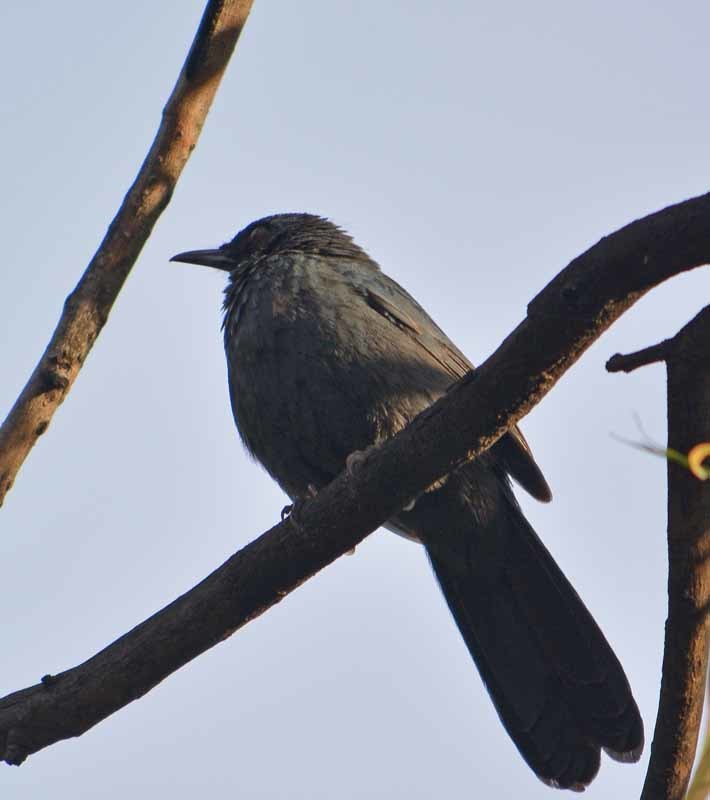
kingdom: Animalia
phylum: Chordata
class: Aves
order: Passeriformes
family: Mimidae
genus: Melanotis
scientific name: Melanotis caerulescens
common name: Blue mockingbird
